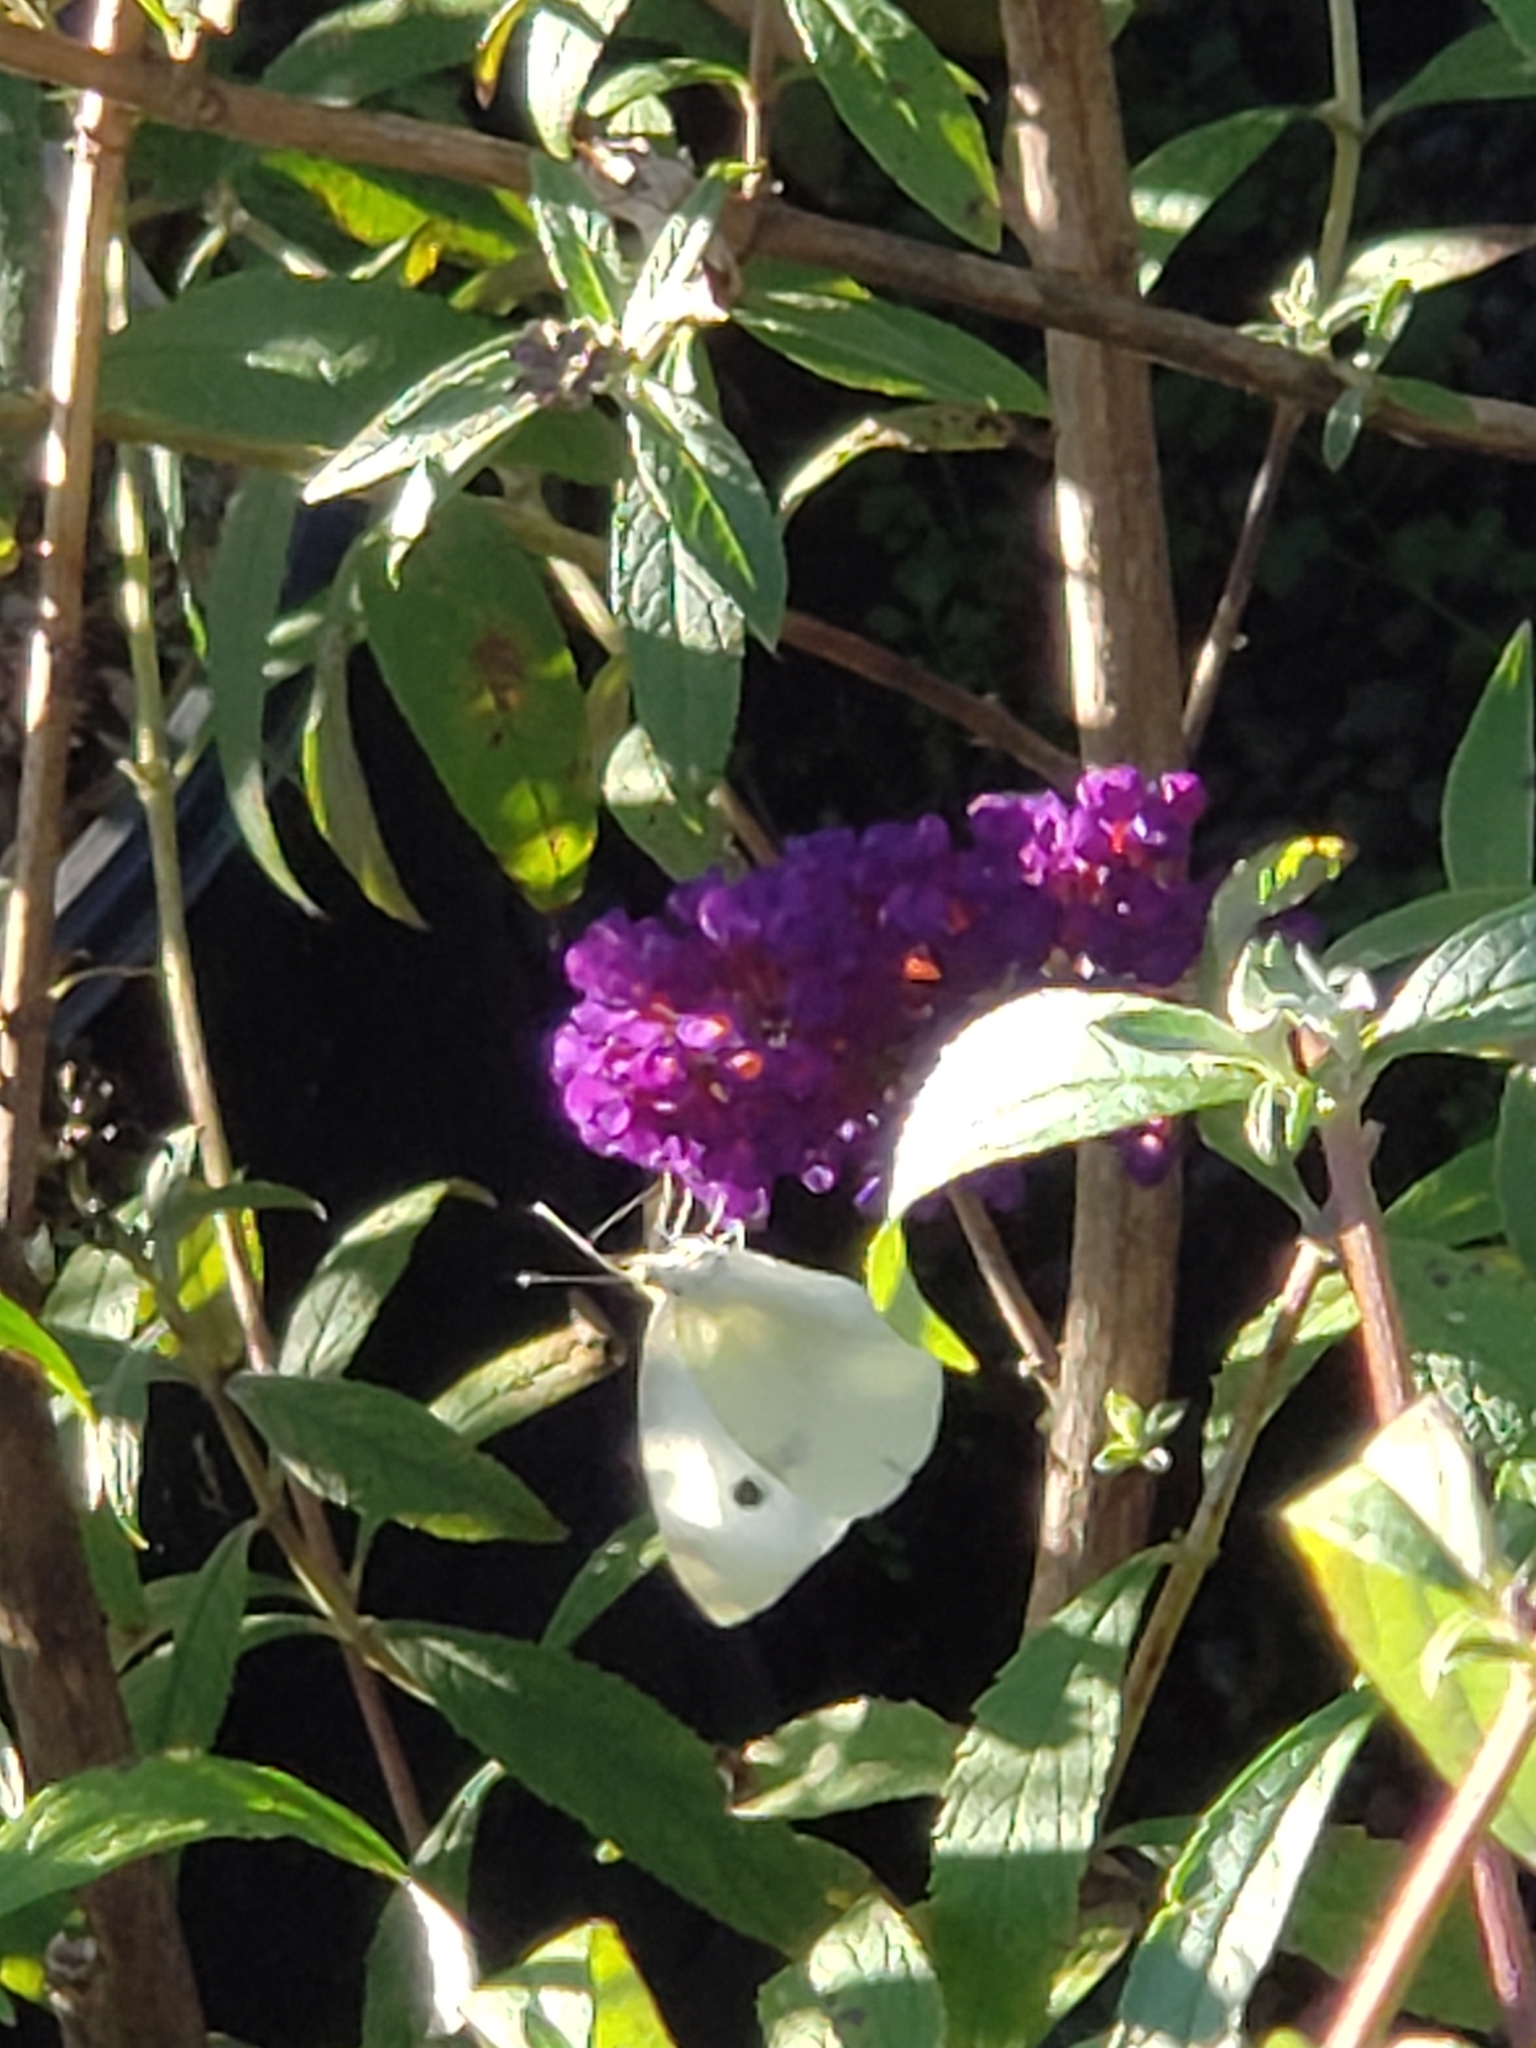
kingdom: Animalia
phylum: Arthropoda
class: Insecta
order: Lepidoptera
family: Pieridae
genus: Pieris
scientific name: Pieris rapae
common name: Small white
